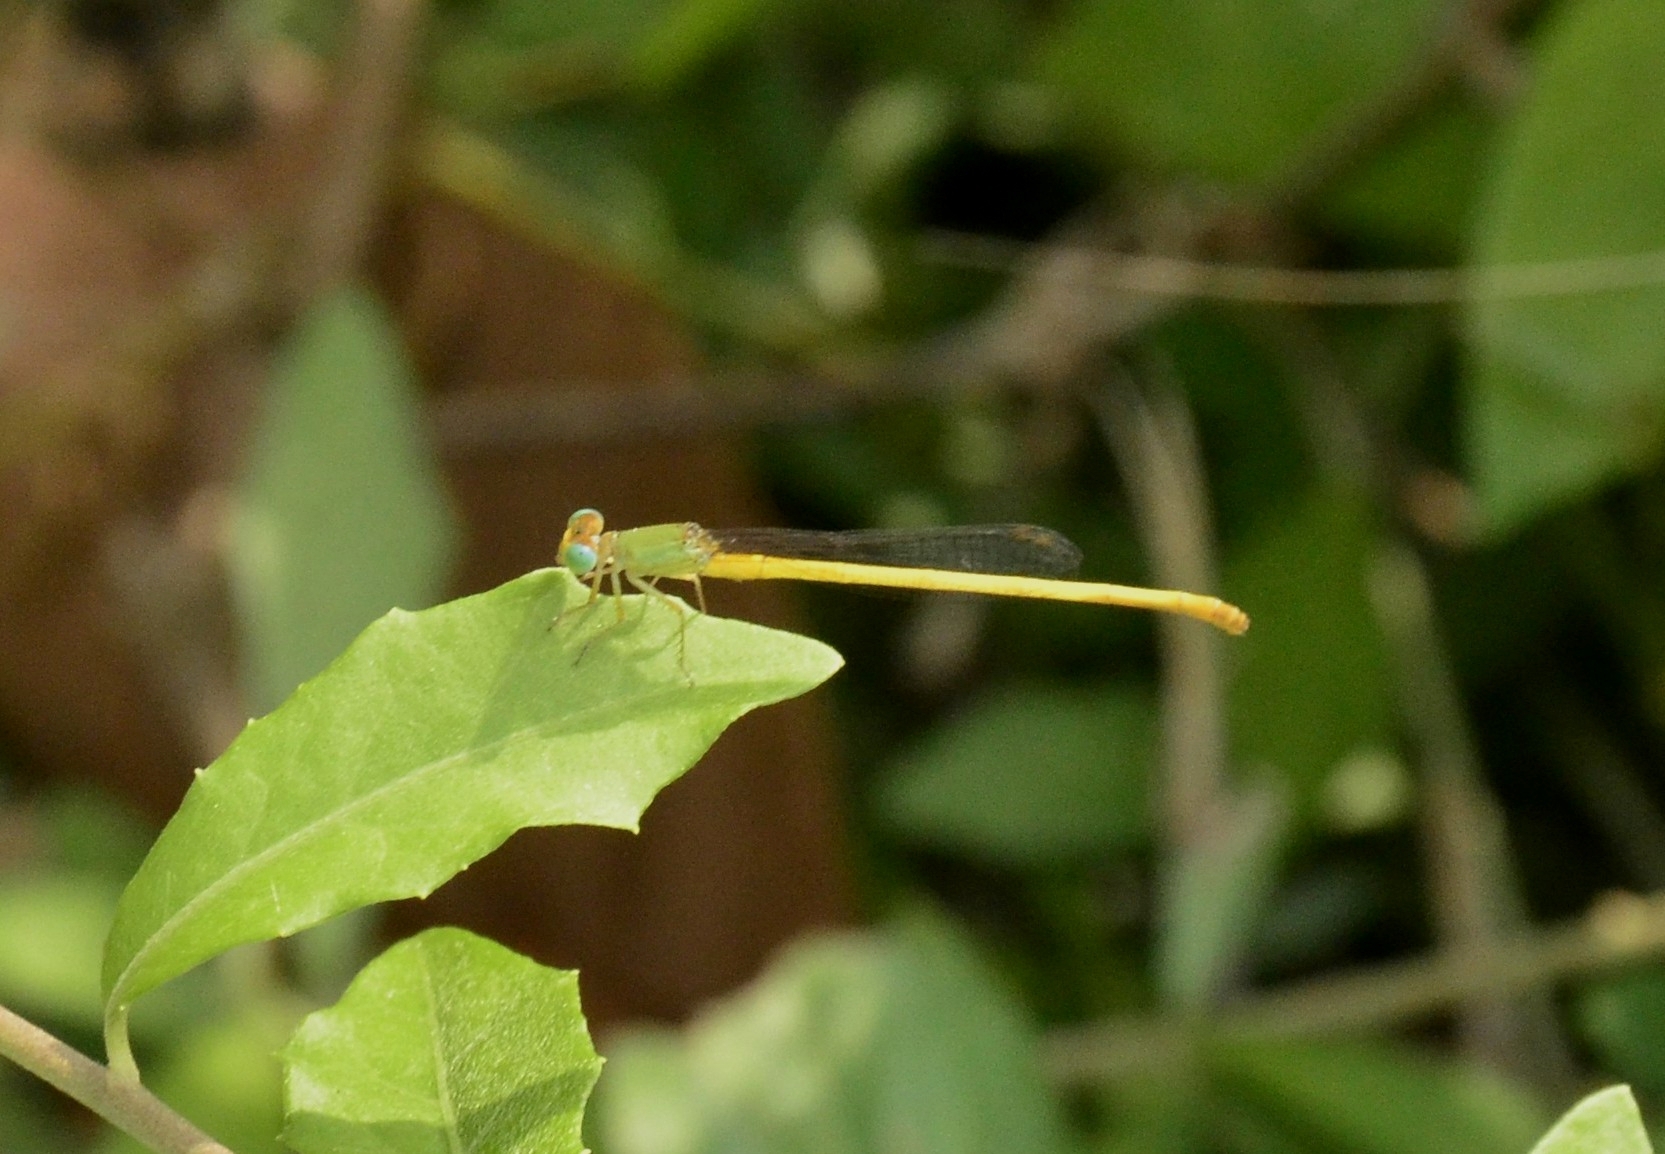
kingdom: Animalia
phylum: Arthropoda
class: Insecta
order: Odonata
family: Coenagrionidae
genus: Ceriagrion
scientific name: Ceriagrion coromandelianum
